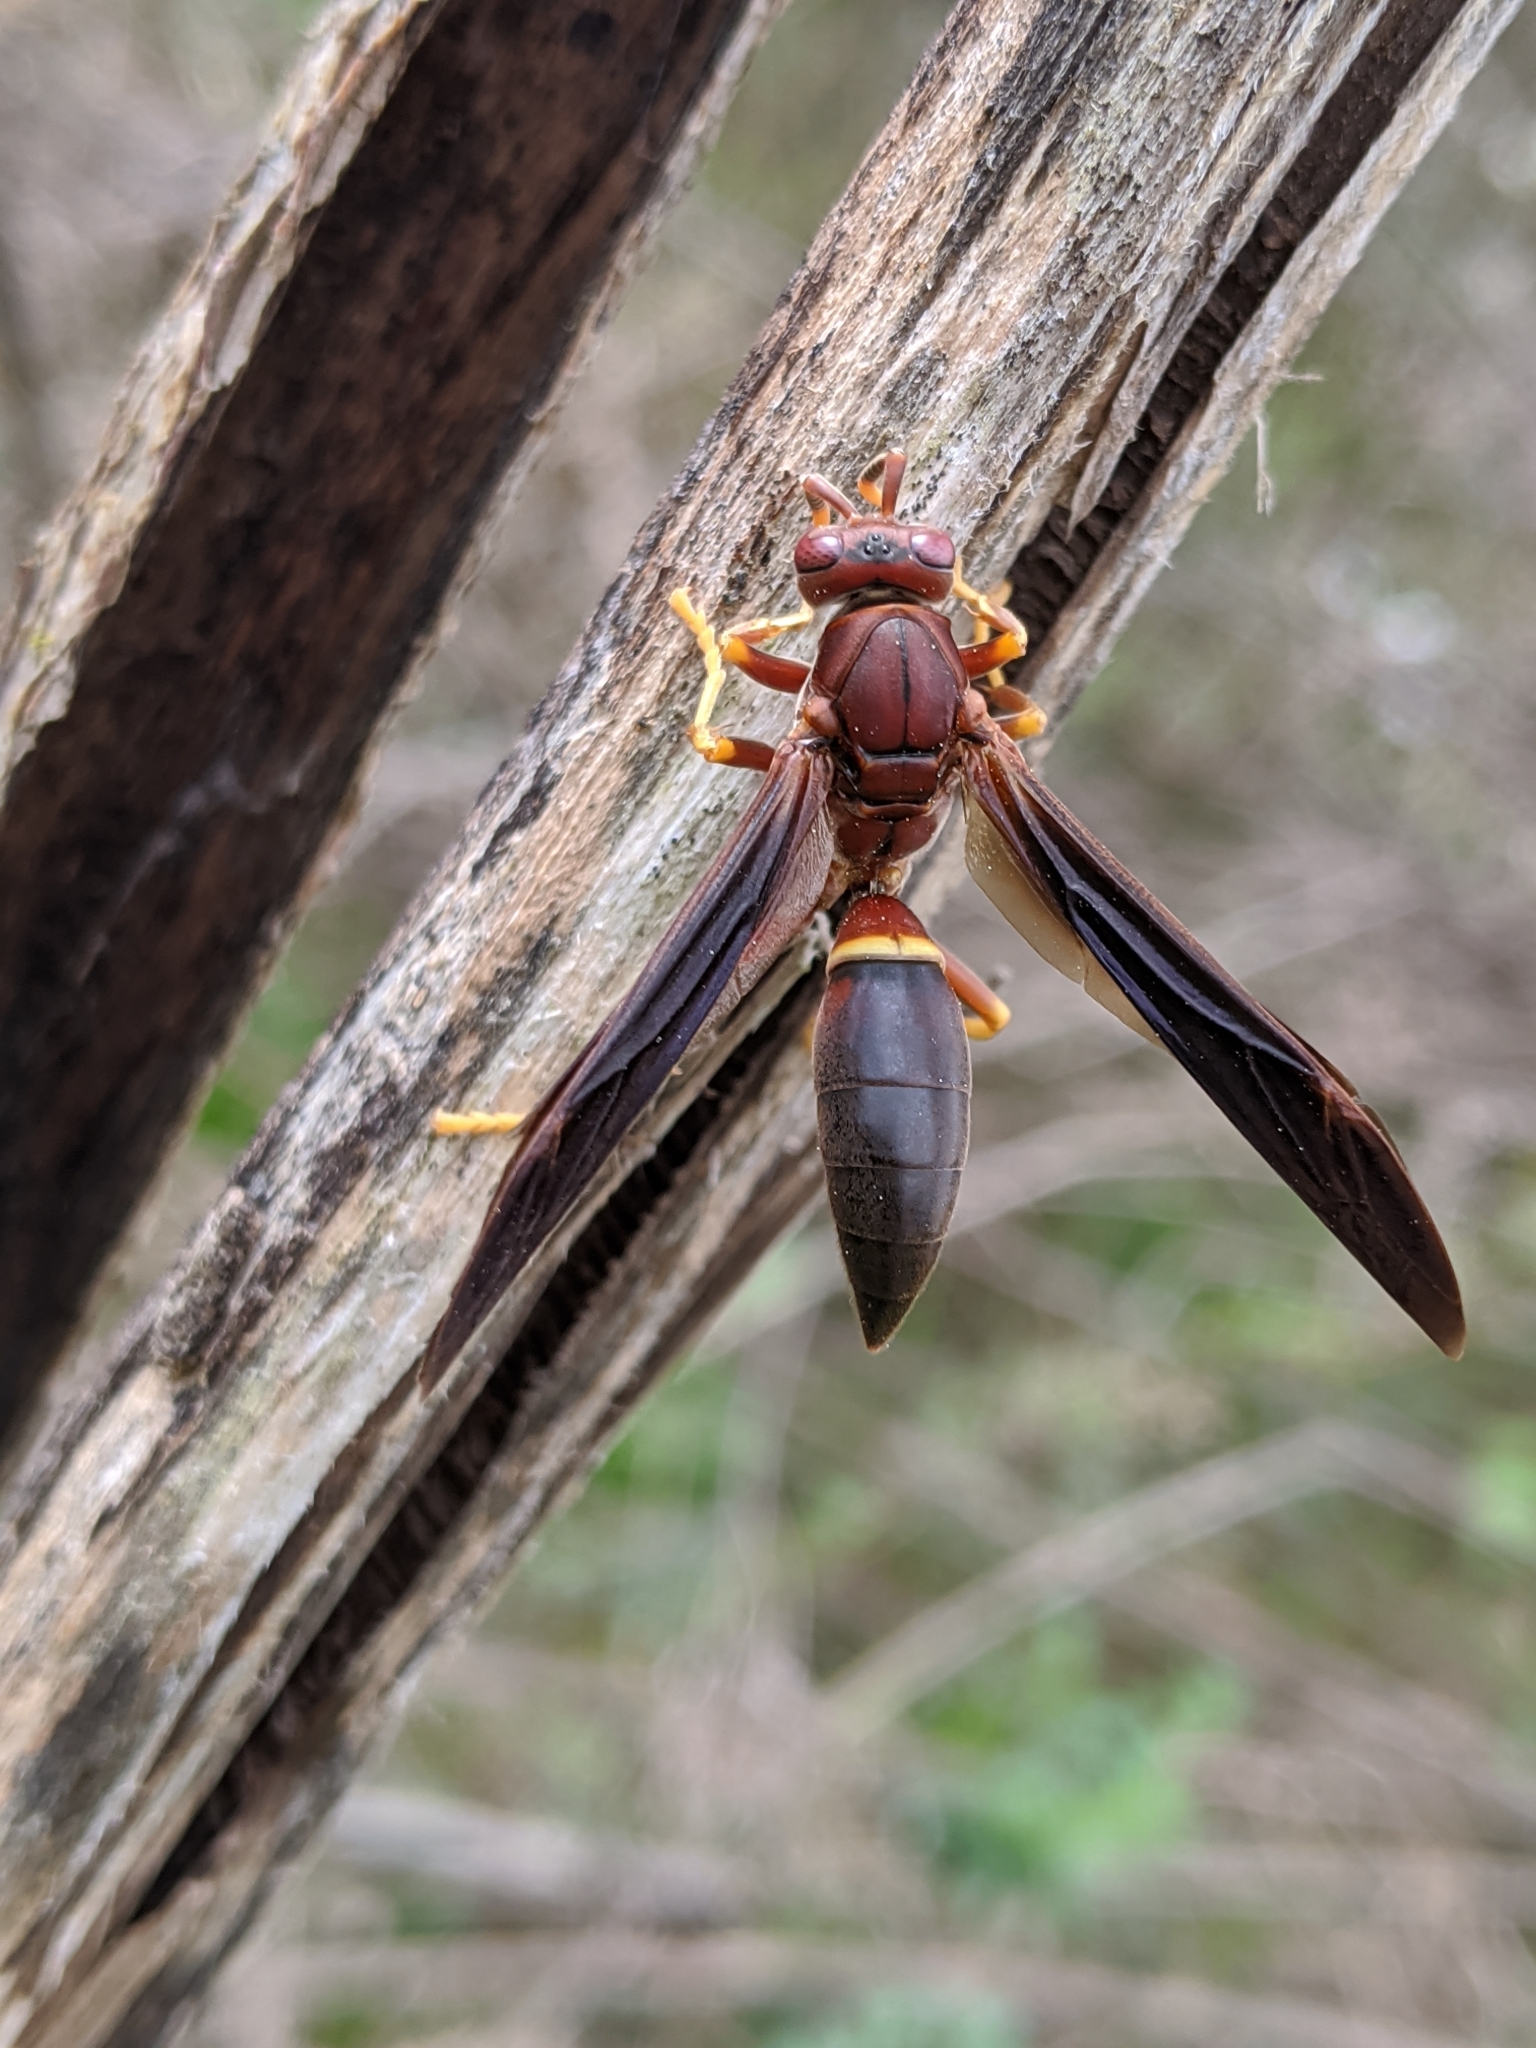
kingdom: Animalia
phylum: Arthropoda
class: Insecta
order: Hymenoptera
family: Eumenidae
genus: Polistes
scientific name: Polistes annularis
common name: Ringed paper wasp
